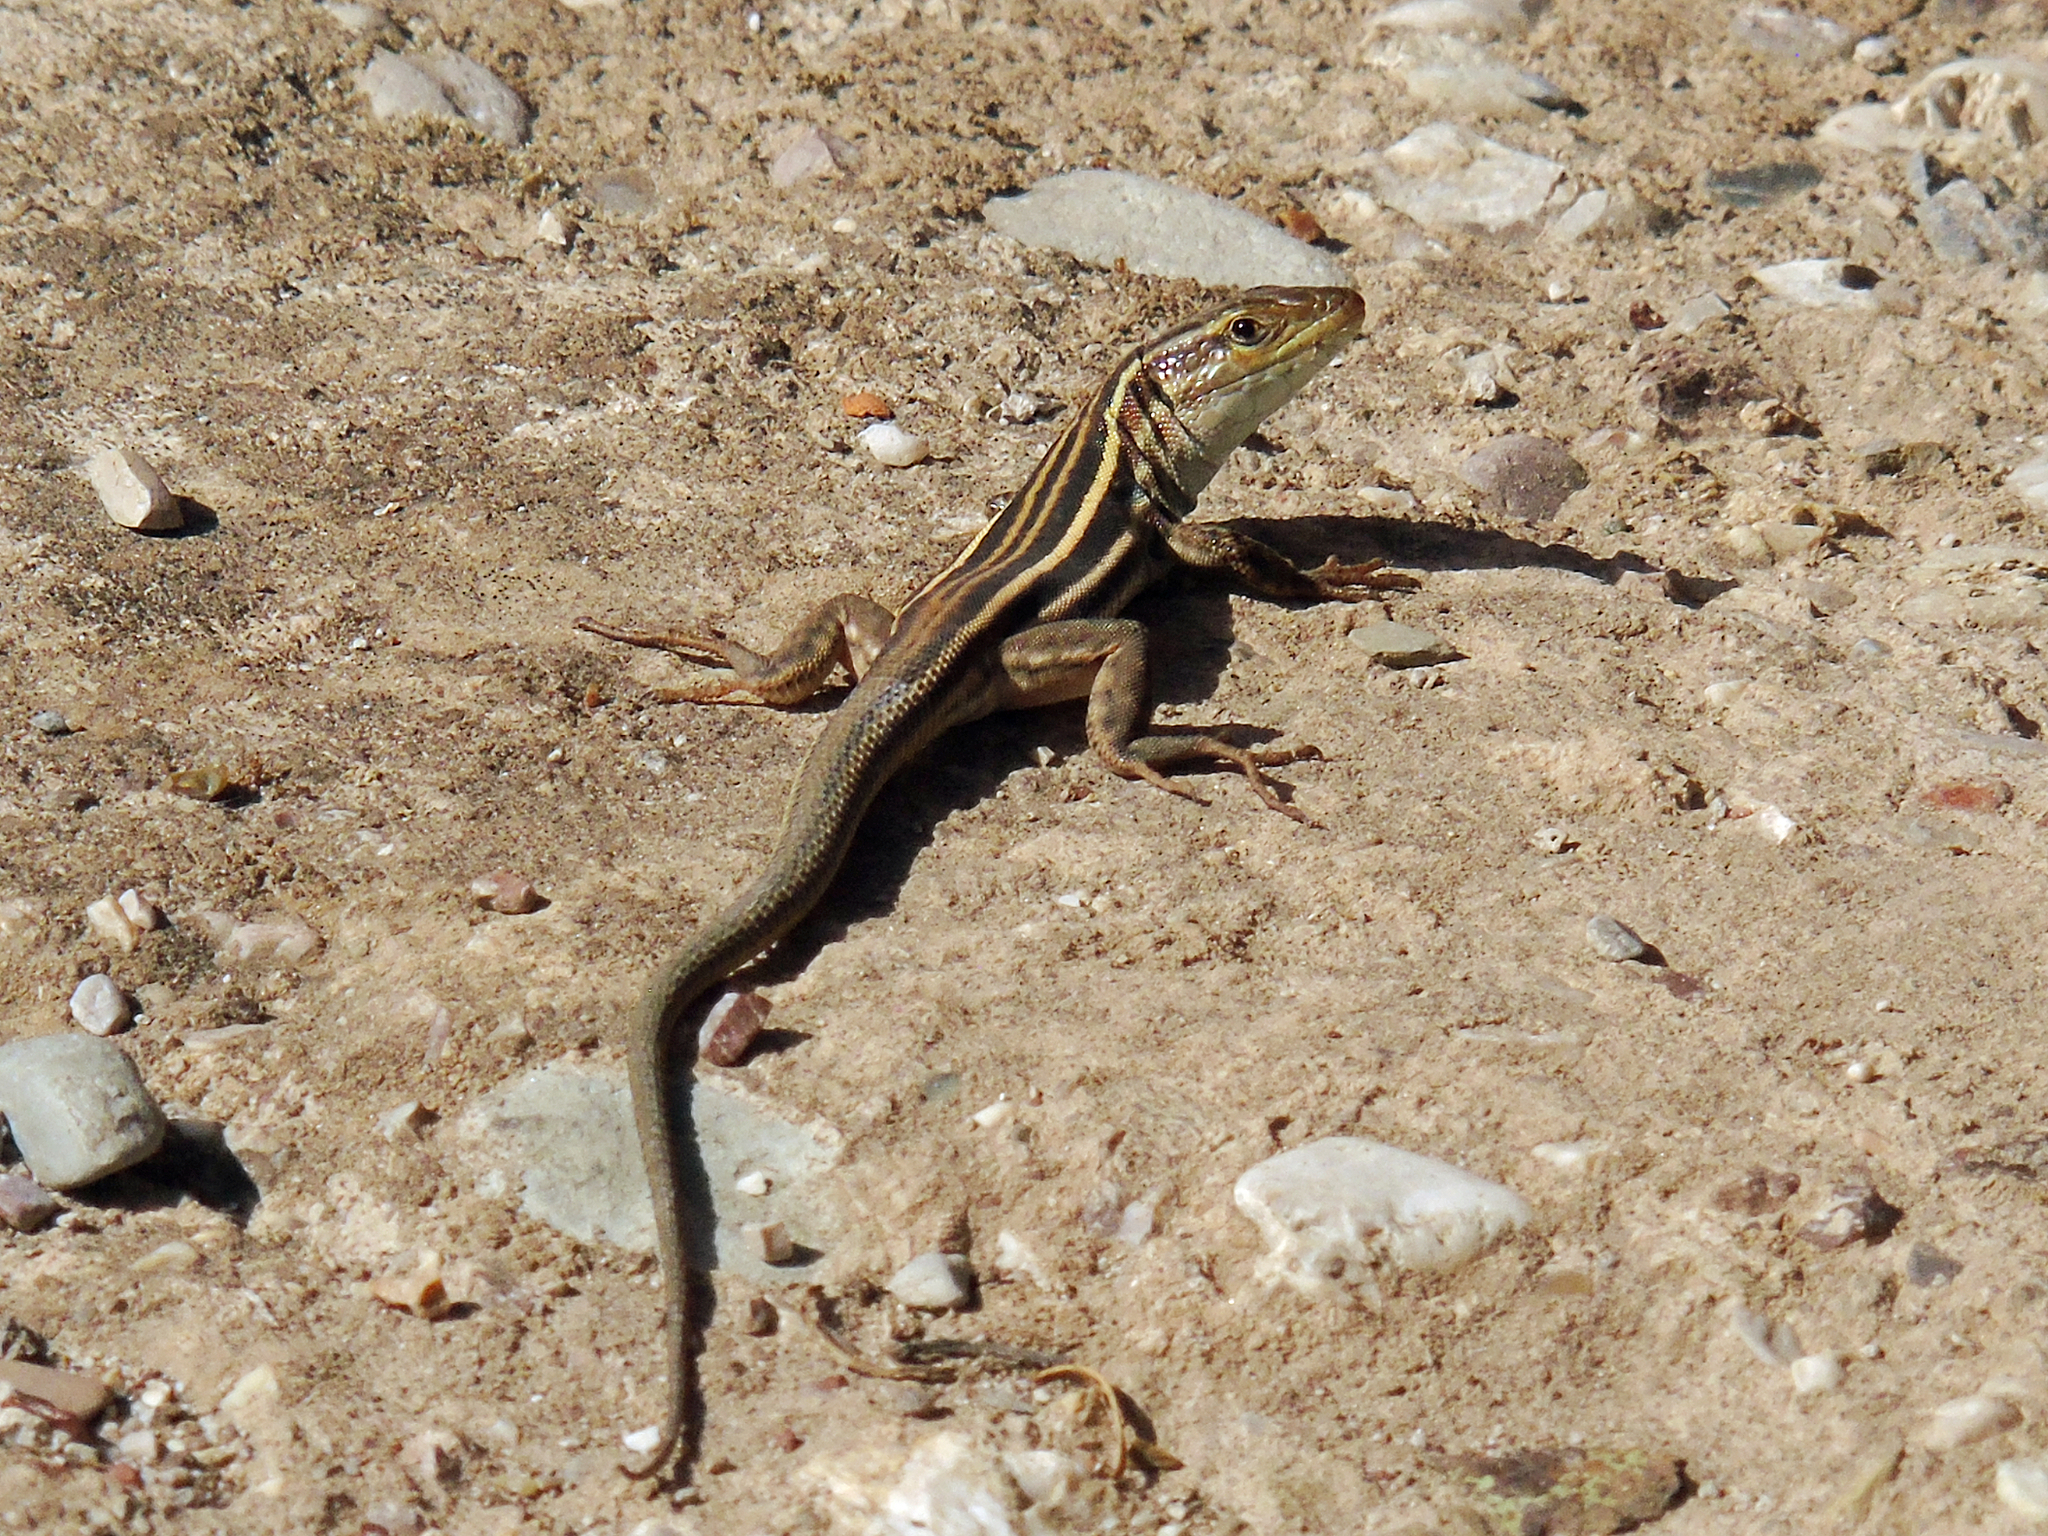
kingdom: Animalia
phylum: Chordata
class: Squamata
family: Lacertidae
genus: Podarcis
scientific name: Podarcis peloponnesiacus
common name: Peloponnese wall lizard
